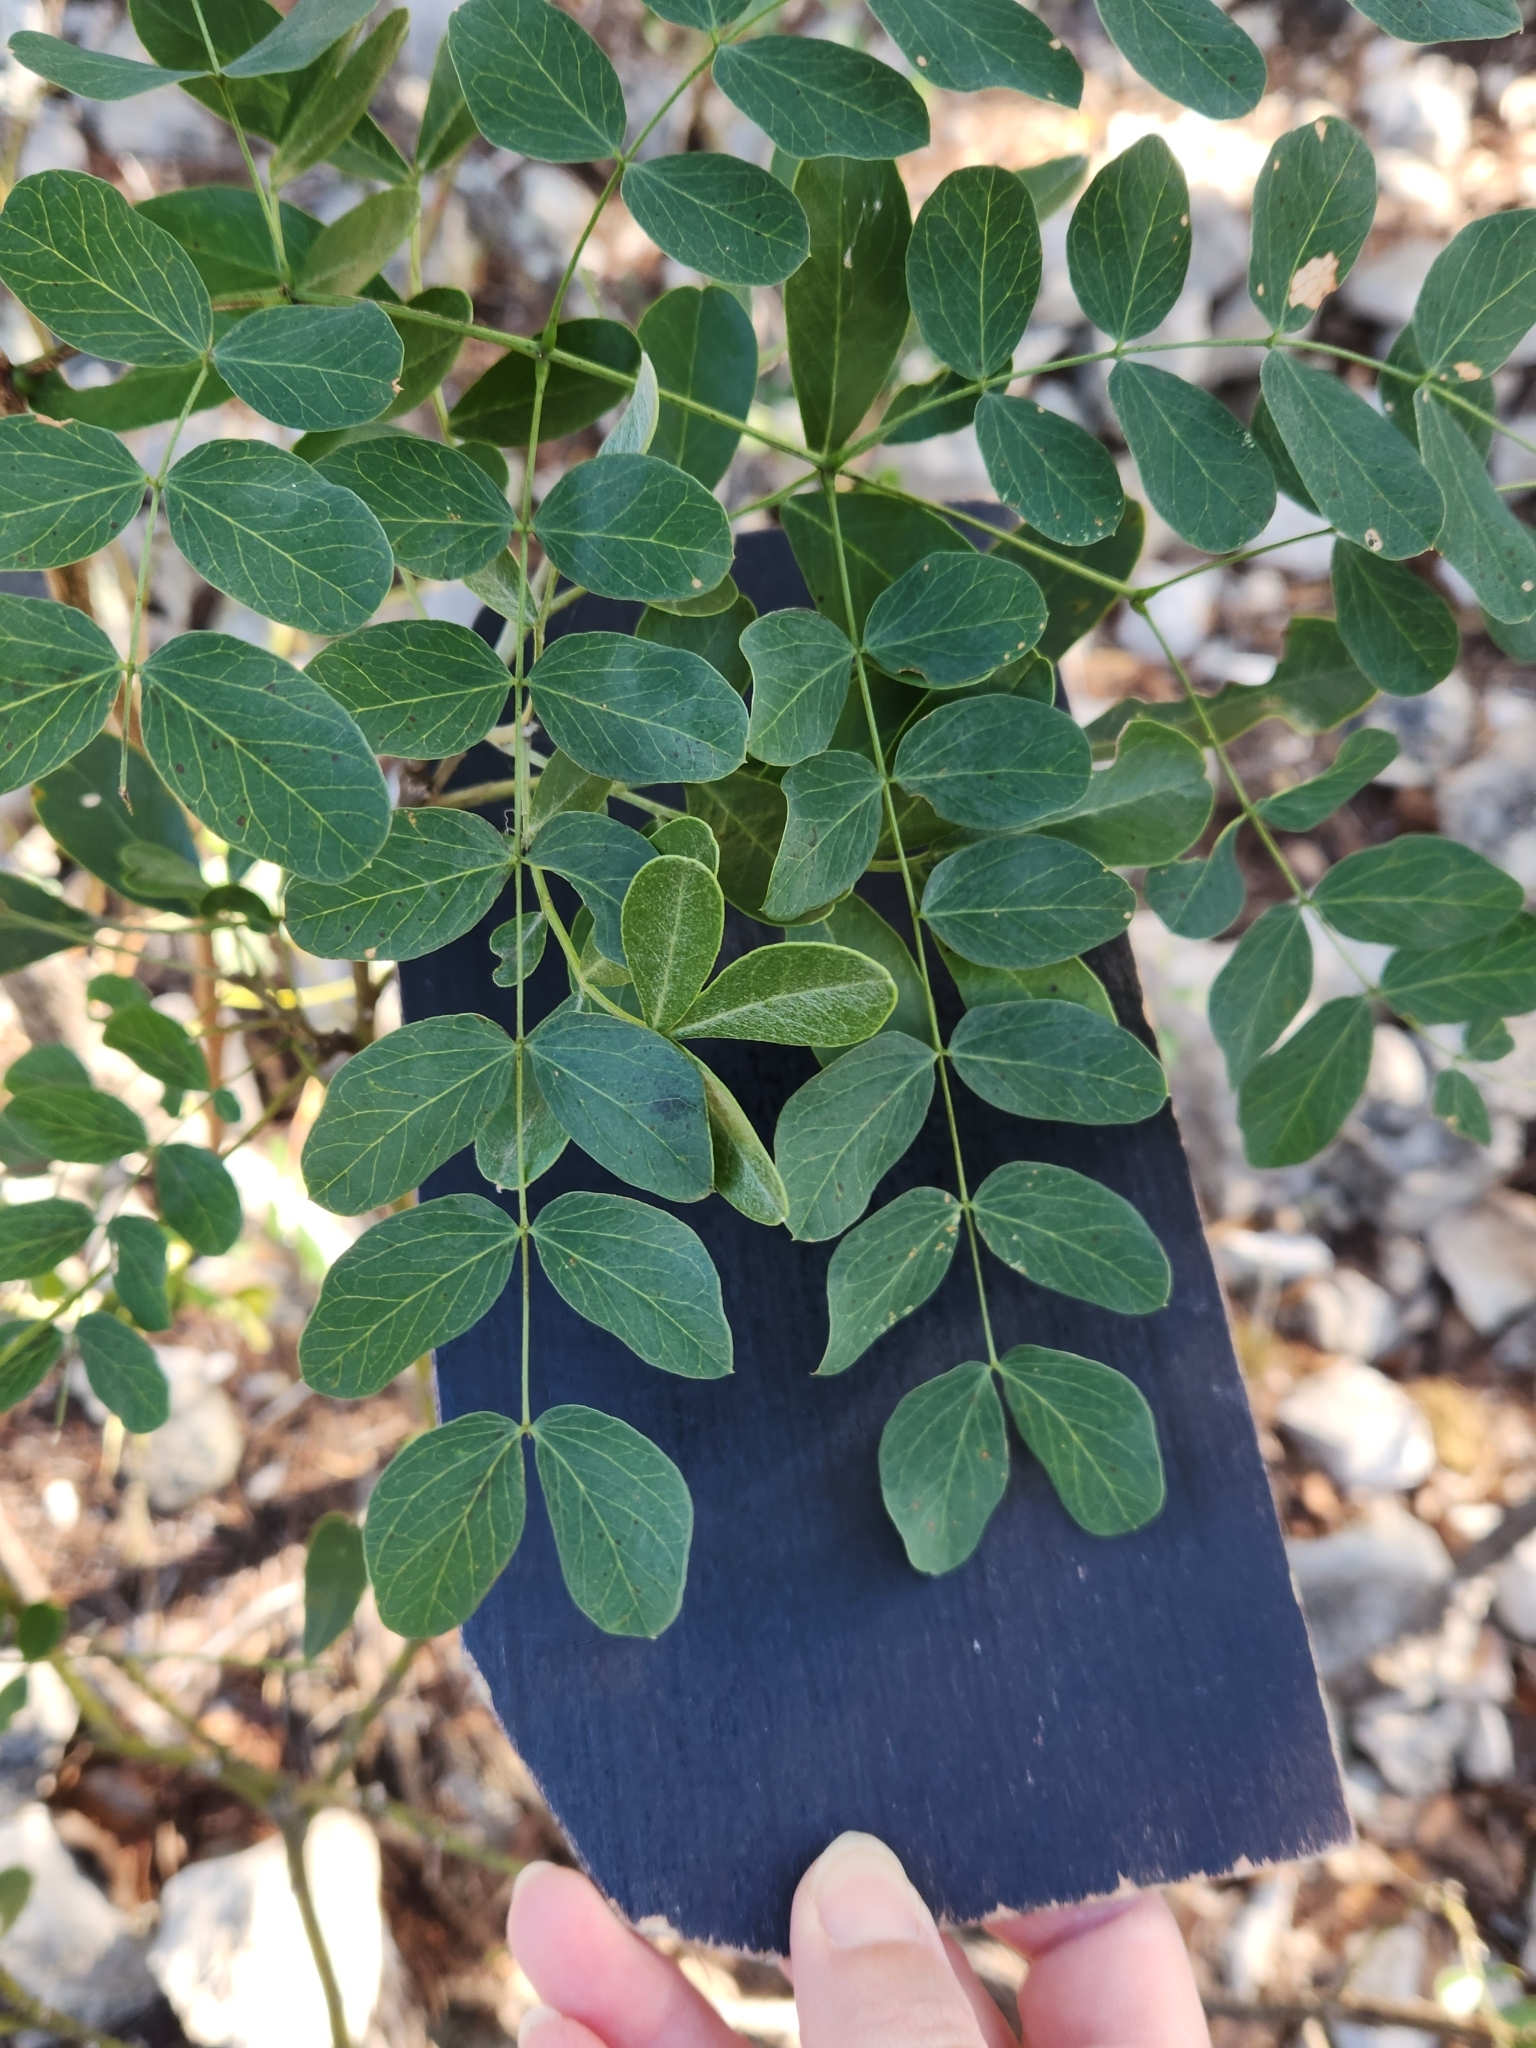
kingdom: Plantae
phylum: Tracheophyta
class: Magnoliopsida
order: Fabales
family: Fabaceae
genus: Leucaena
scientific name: Leucaena retusa
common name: Littleleaf leadtree
